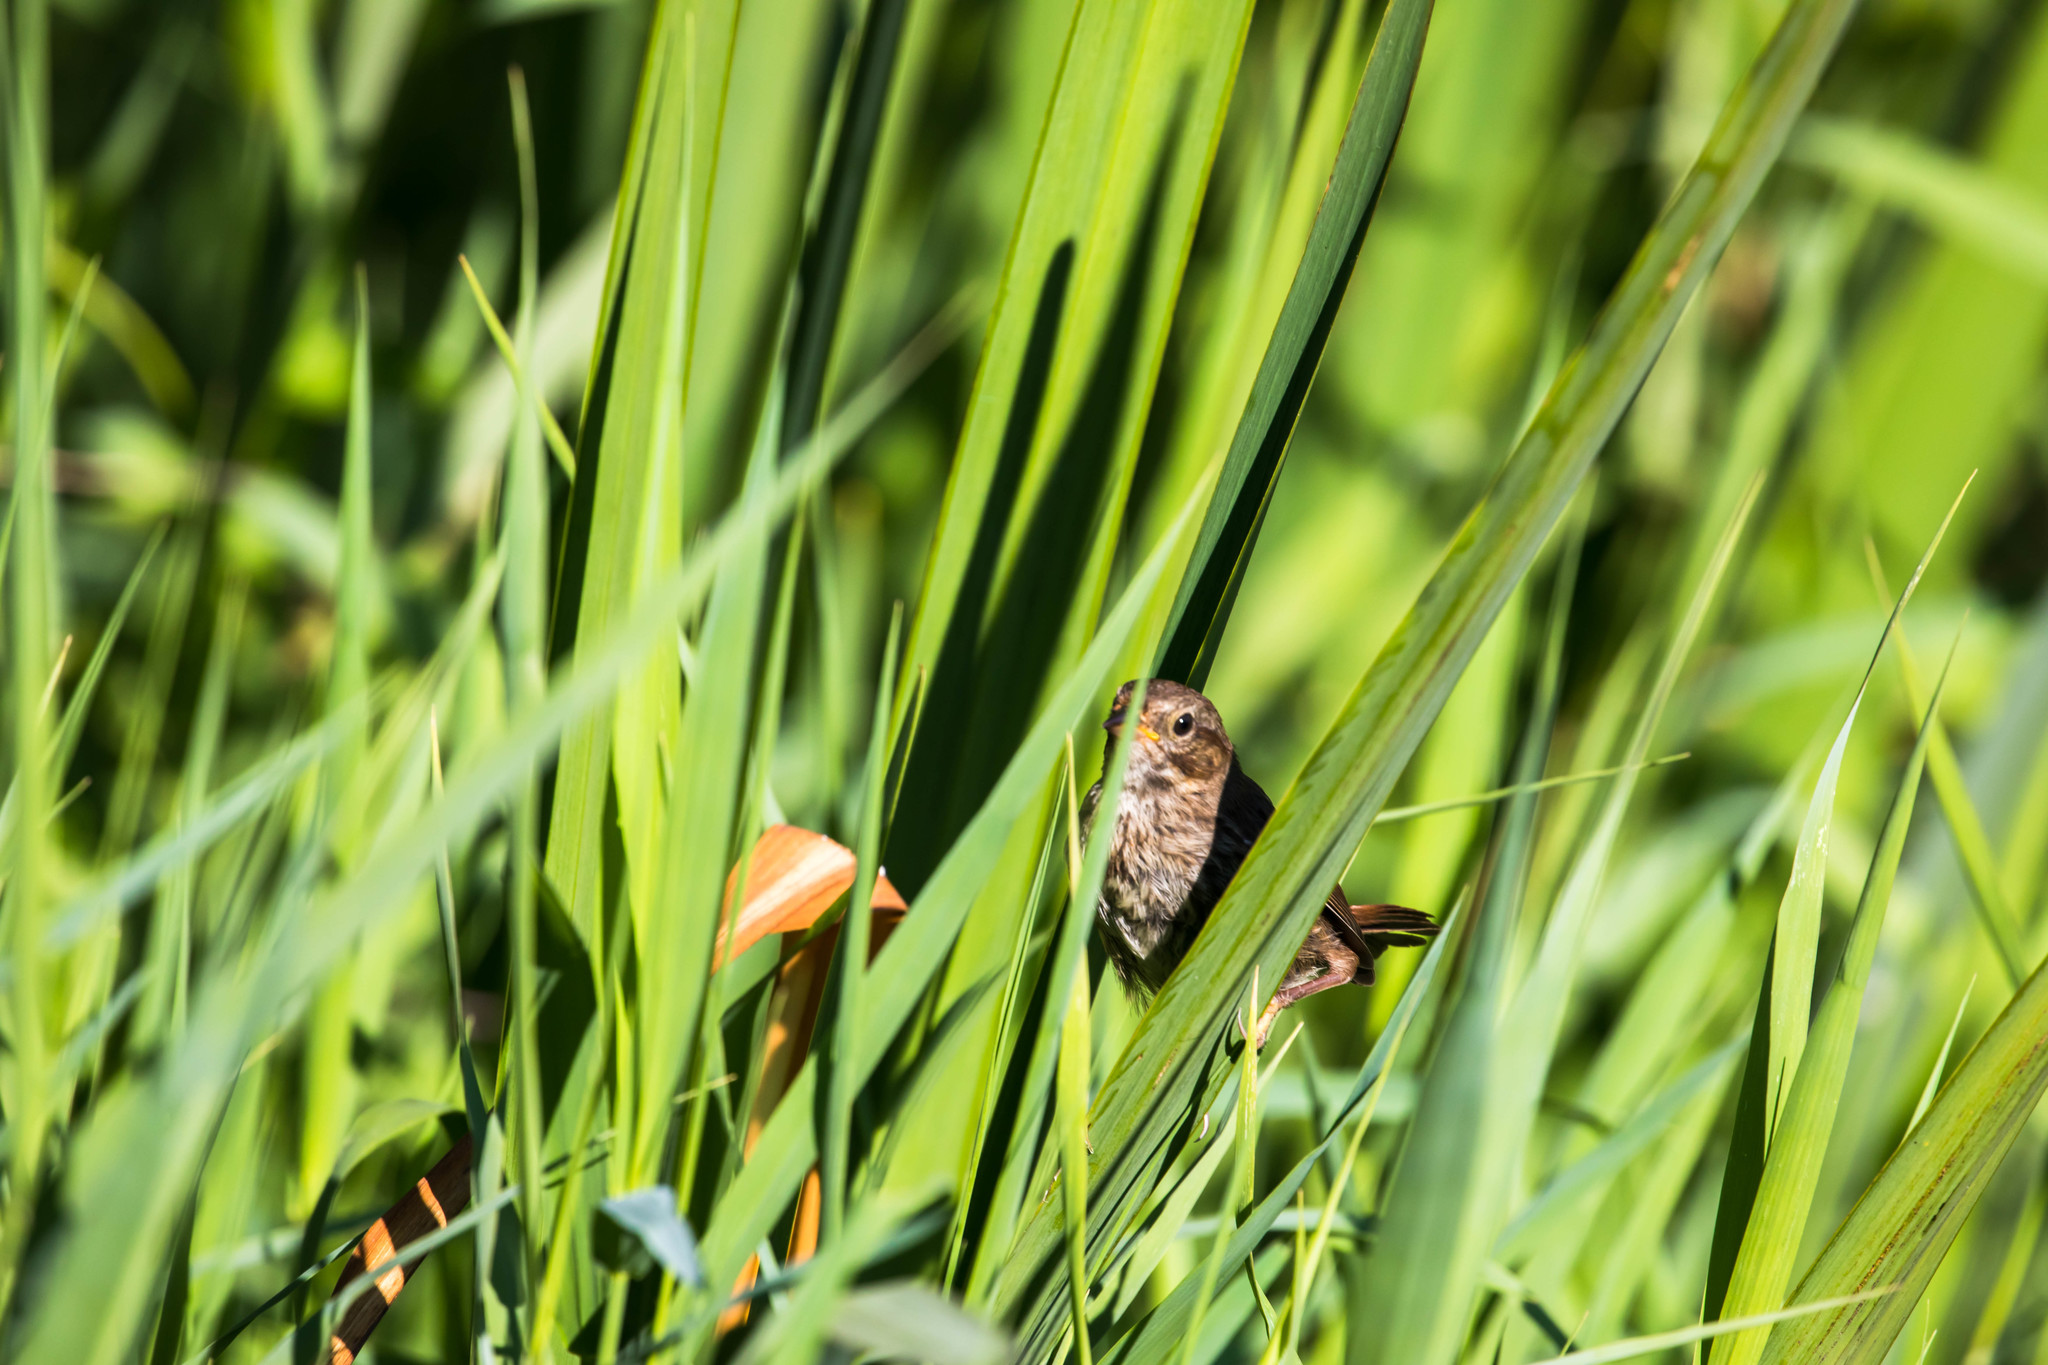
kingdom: Animalia
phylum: Chordata
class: Aves
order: Passeriformes
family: Passerellidae
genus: Melospiza
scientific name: Melospiza melodia
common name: Song sparrow
